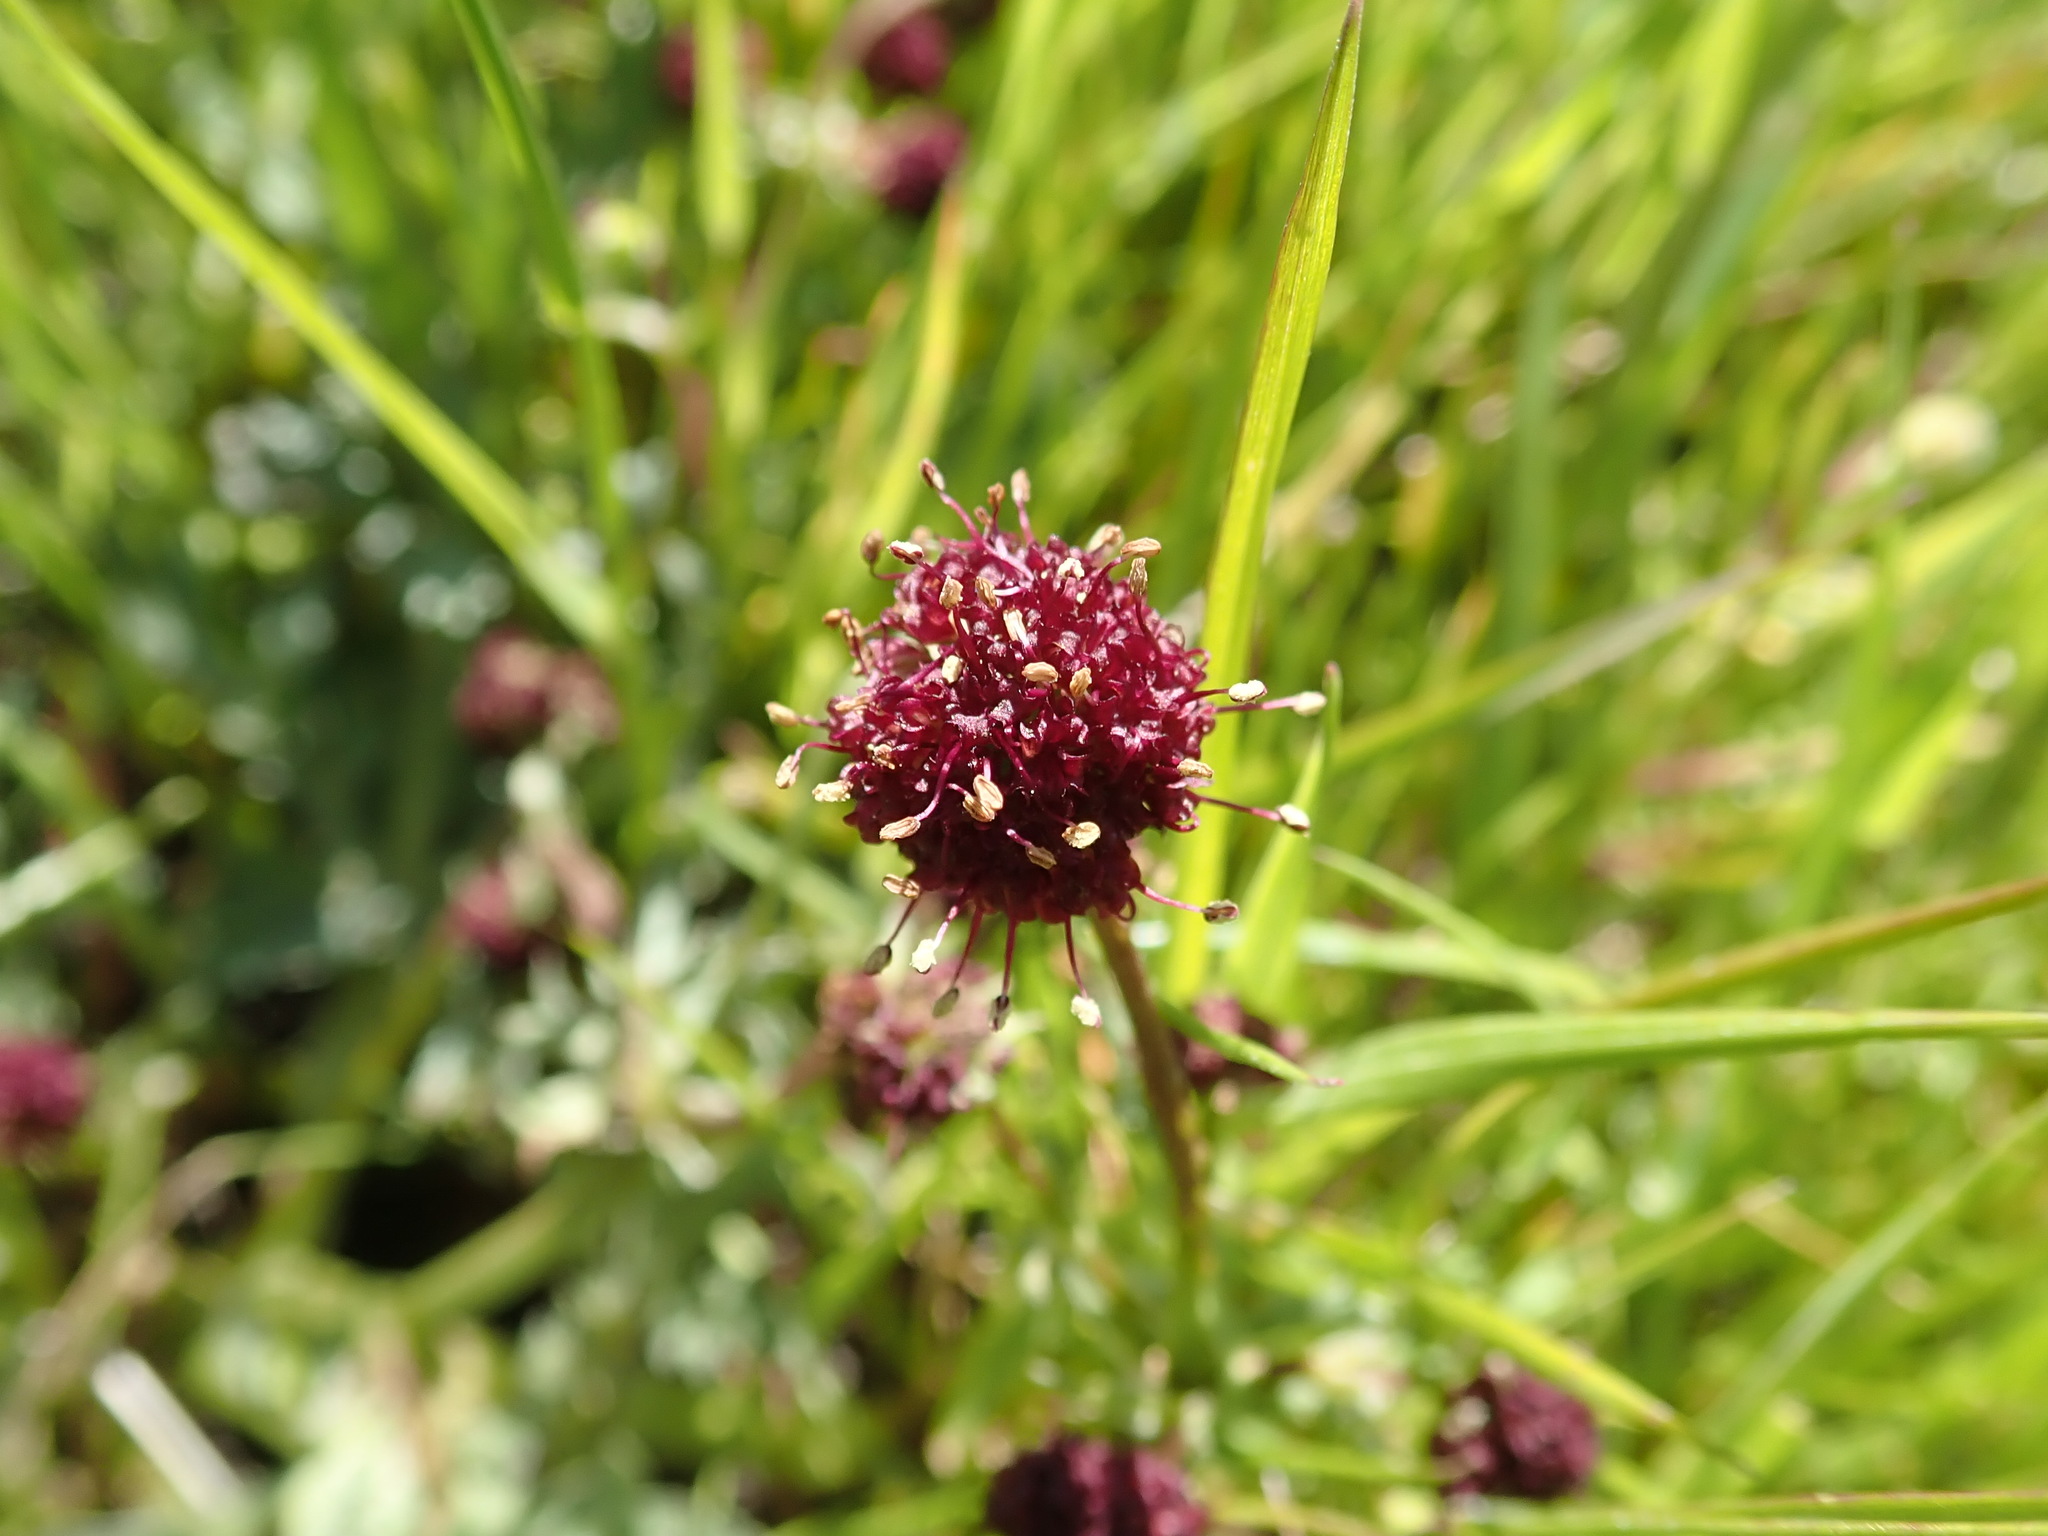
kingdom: Plantae
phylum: Tracheophyta
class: Magnoliopsida
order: Apiales
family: Apiaceae
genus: Sanicula
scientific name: Sanicula bipinnatifida
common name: Shoe-buttons
